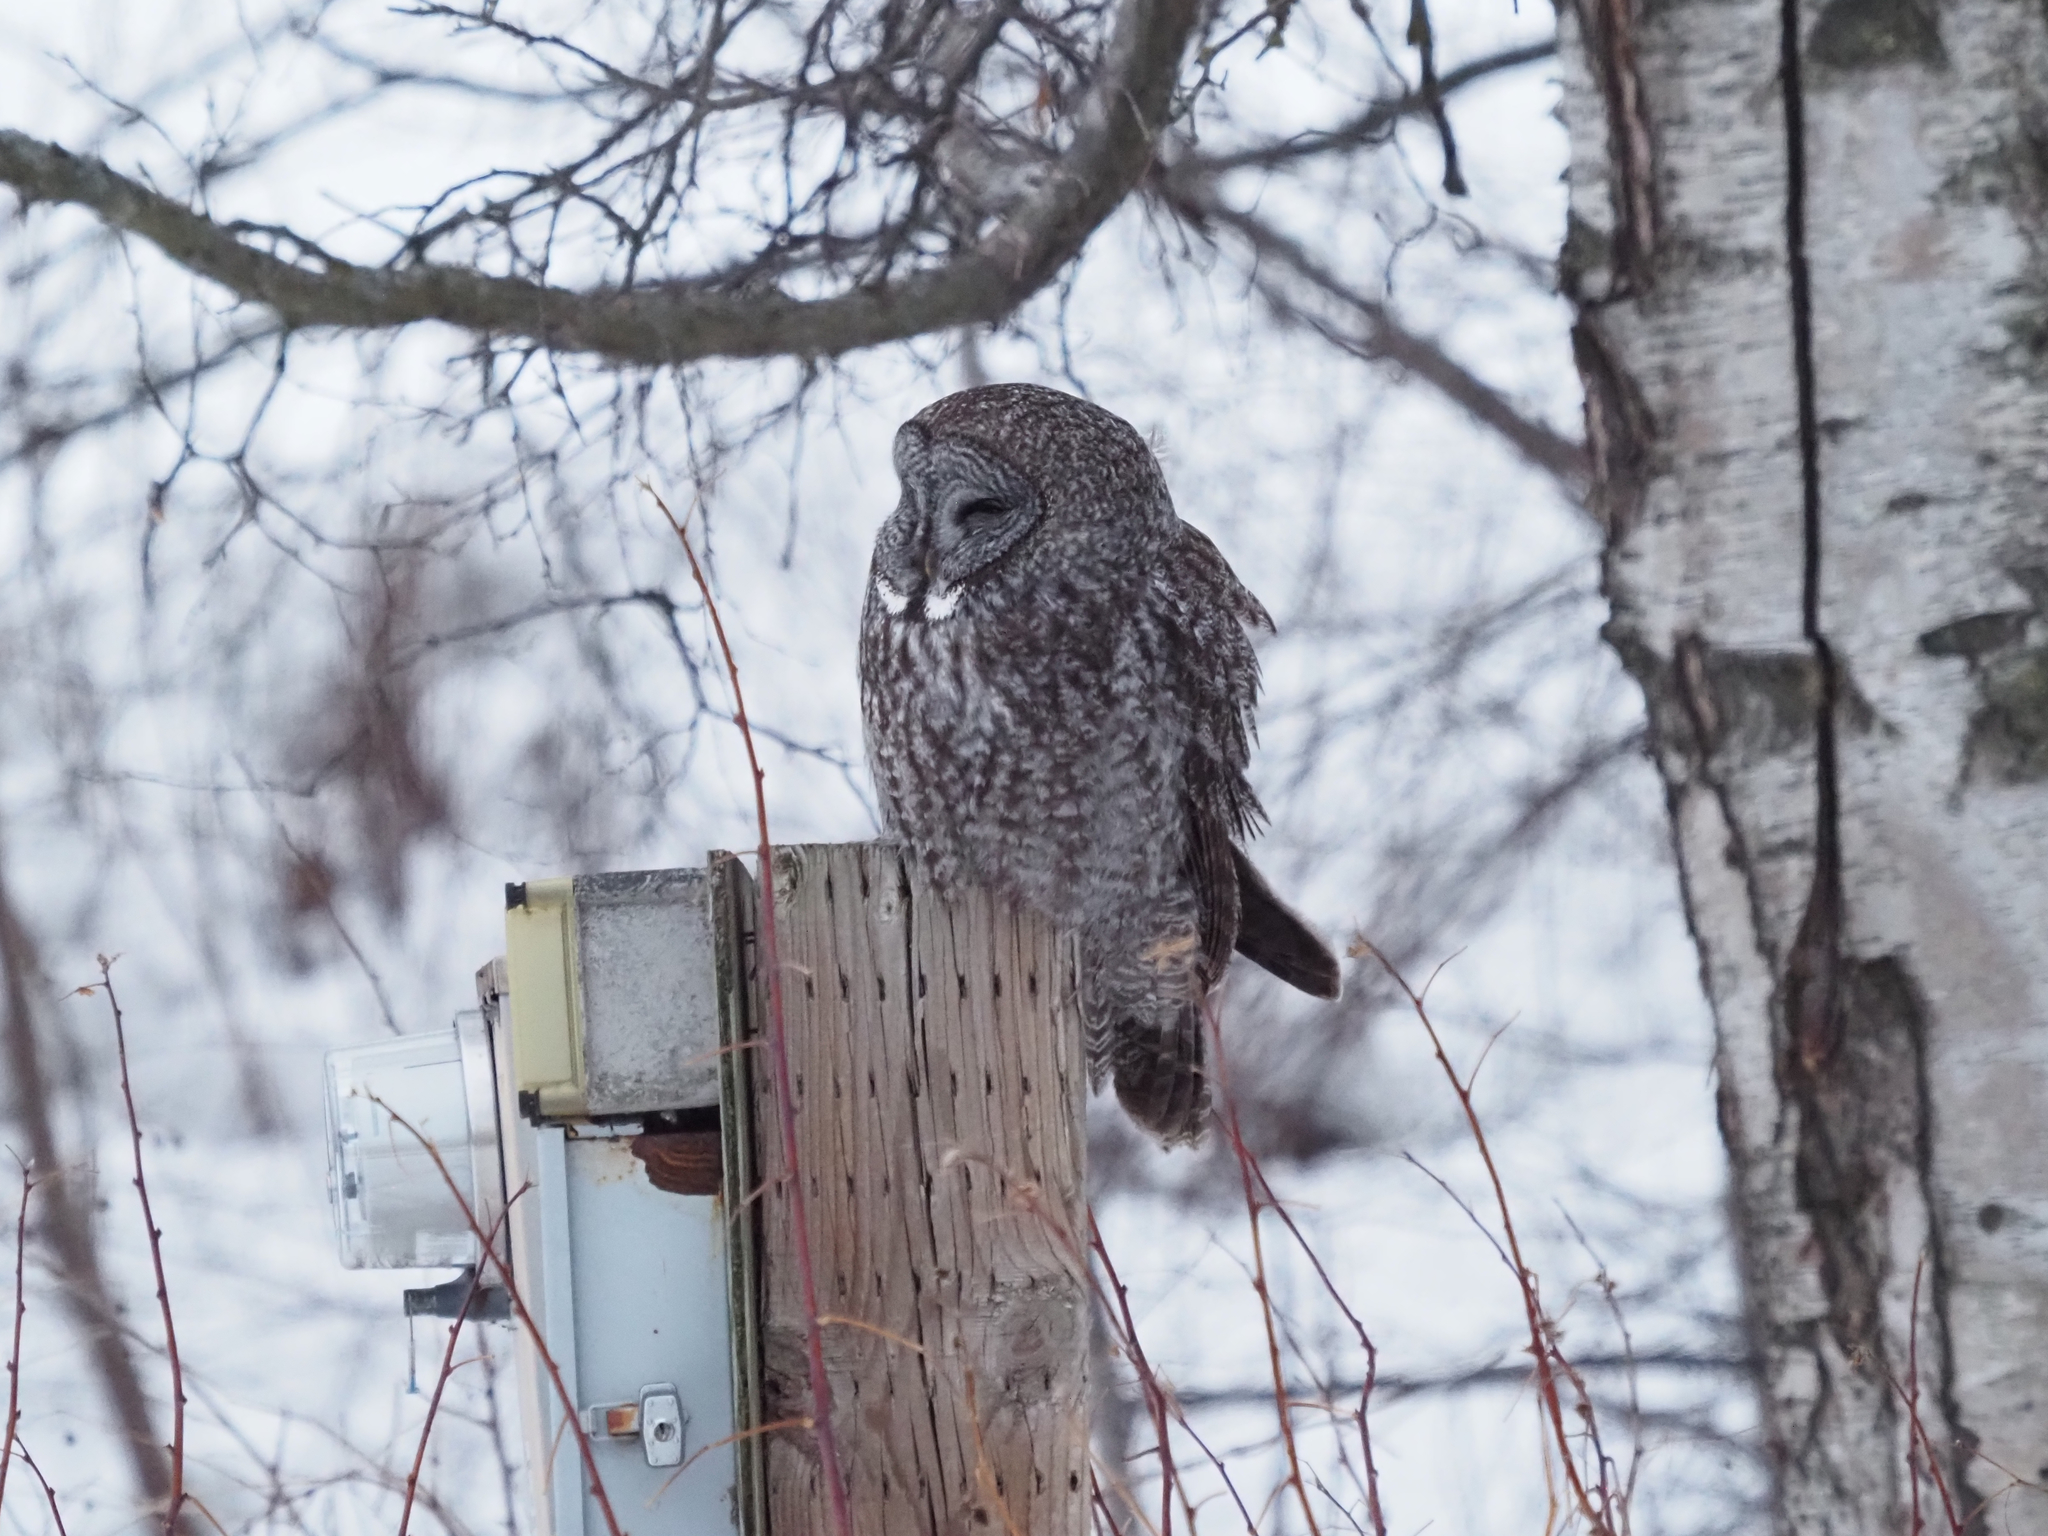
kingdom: Animalia
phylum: Chordata
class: Aves
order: Strigiformes
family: Strigidae
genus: Strix
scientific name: Strix nebulosa
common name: Great grey owl
